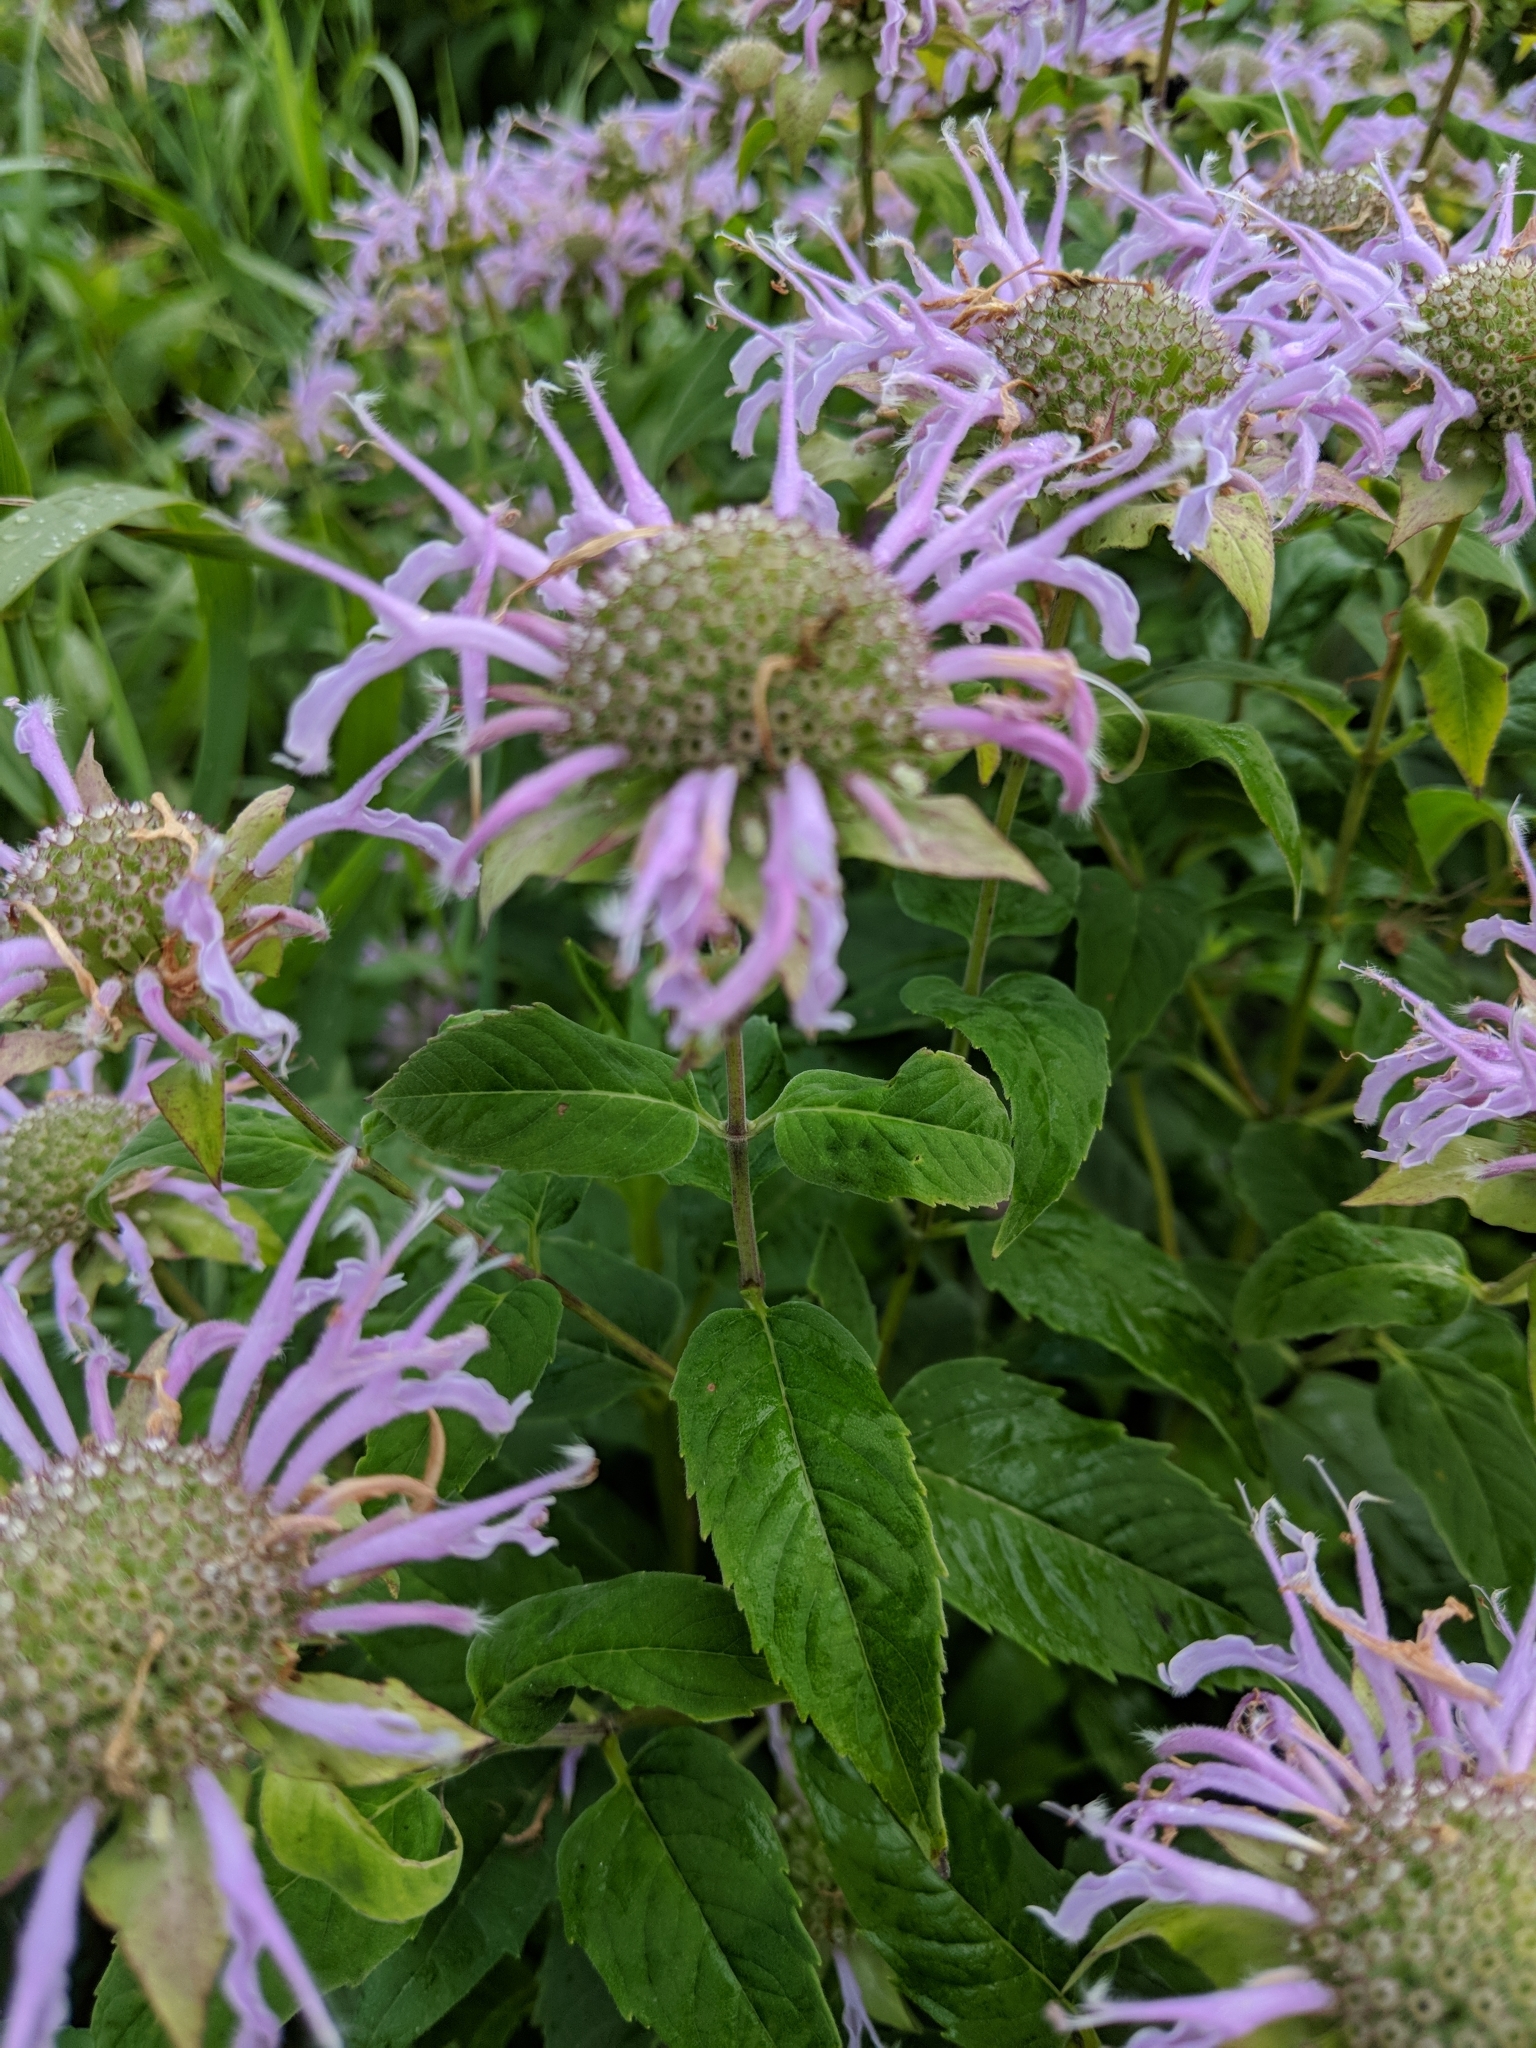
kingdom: Plantae
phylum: Tracheophyta
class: Magnoliopsida
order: Lamiales
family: Lamiaceae
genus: Monarda
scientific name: Monarda fistulosa
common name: Purple beebalm
